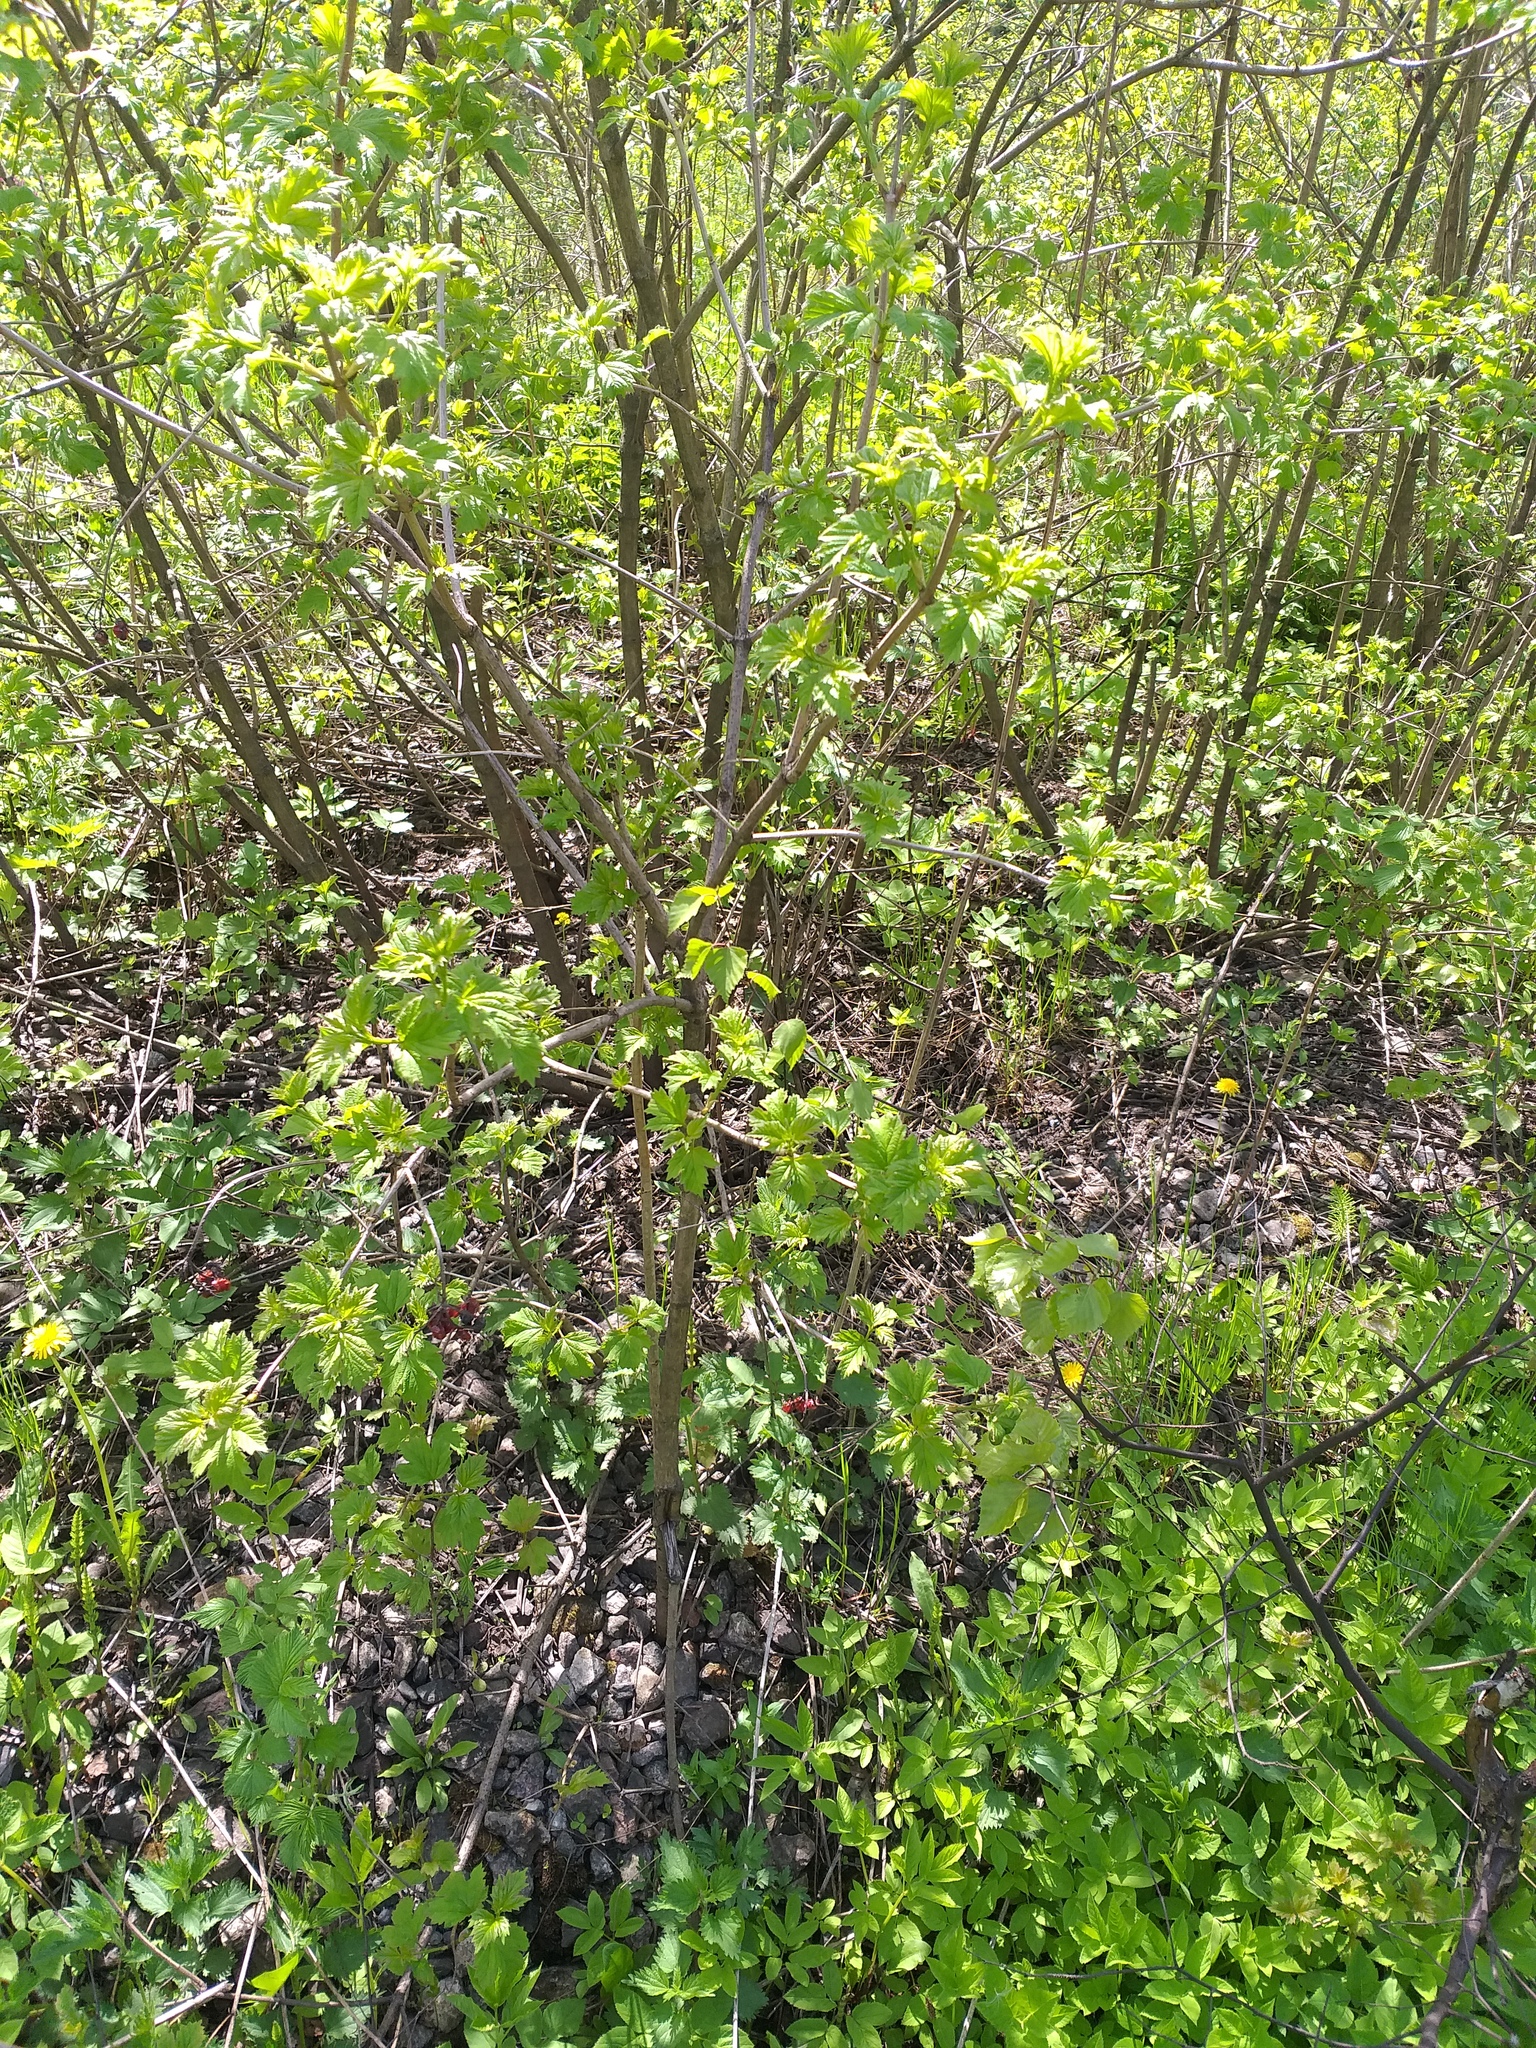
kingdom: Plantae
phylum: Tracheophyta
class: Magnoliopsida
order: Dipsacales
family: Viburnaceae
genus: Viburnum
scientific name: Viburnum opulus
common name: Guelder-rose
